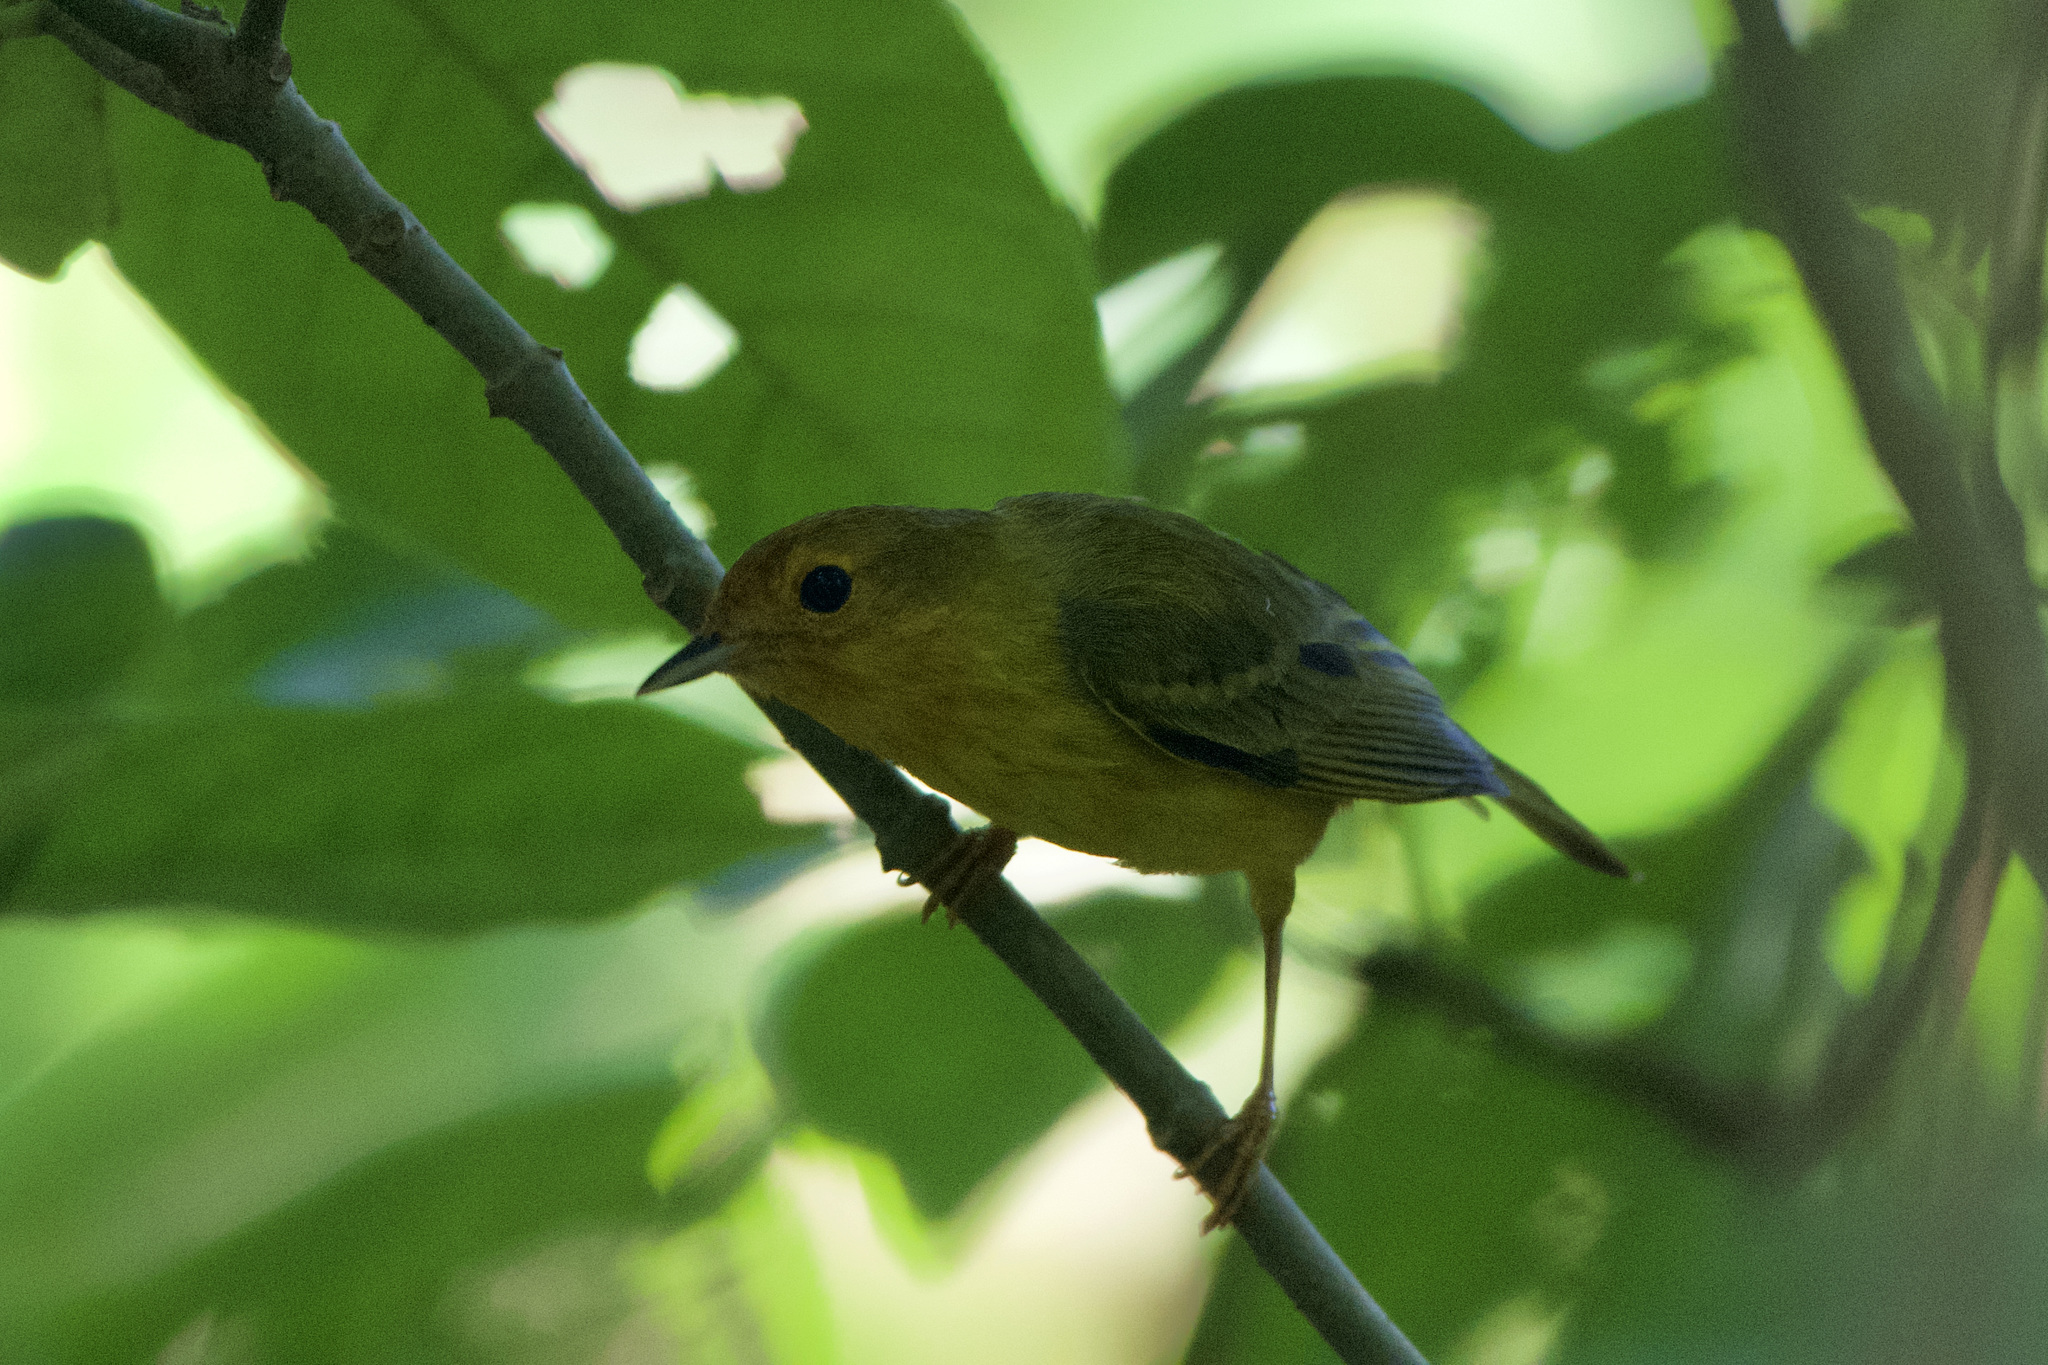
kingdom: Animalia
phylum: Chordata
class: Aves
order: Passeriformes
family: Parulidae
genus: Setophaga
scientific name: Setophaga petechia
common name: Yellow warbler
